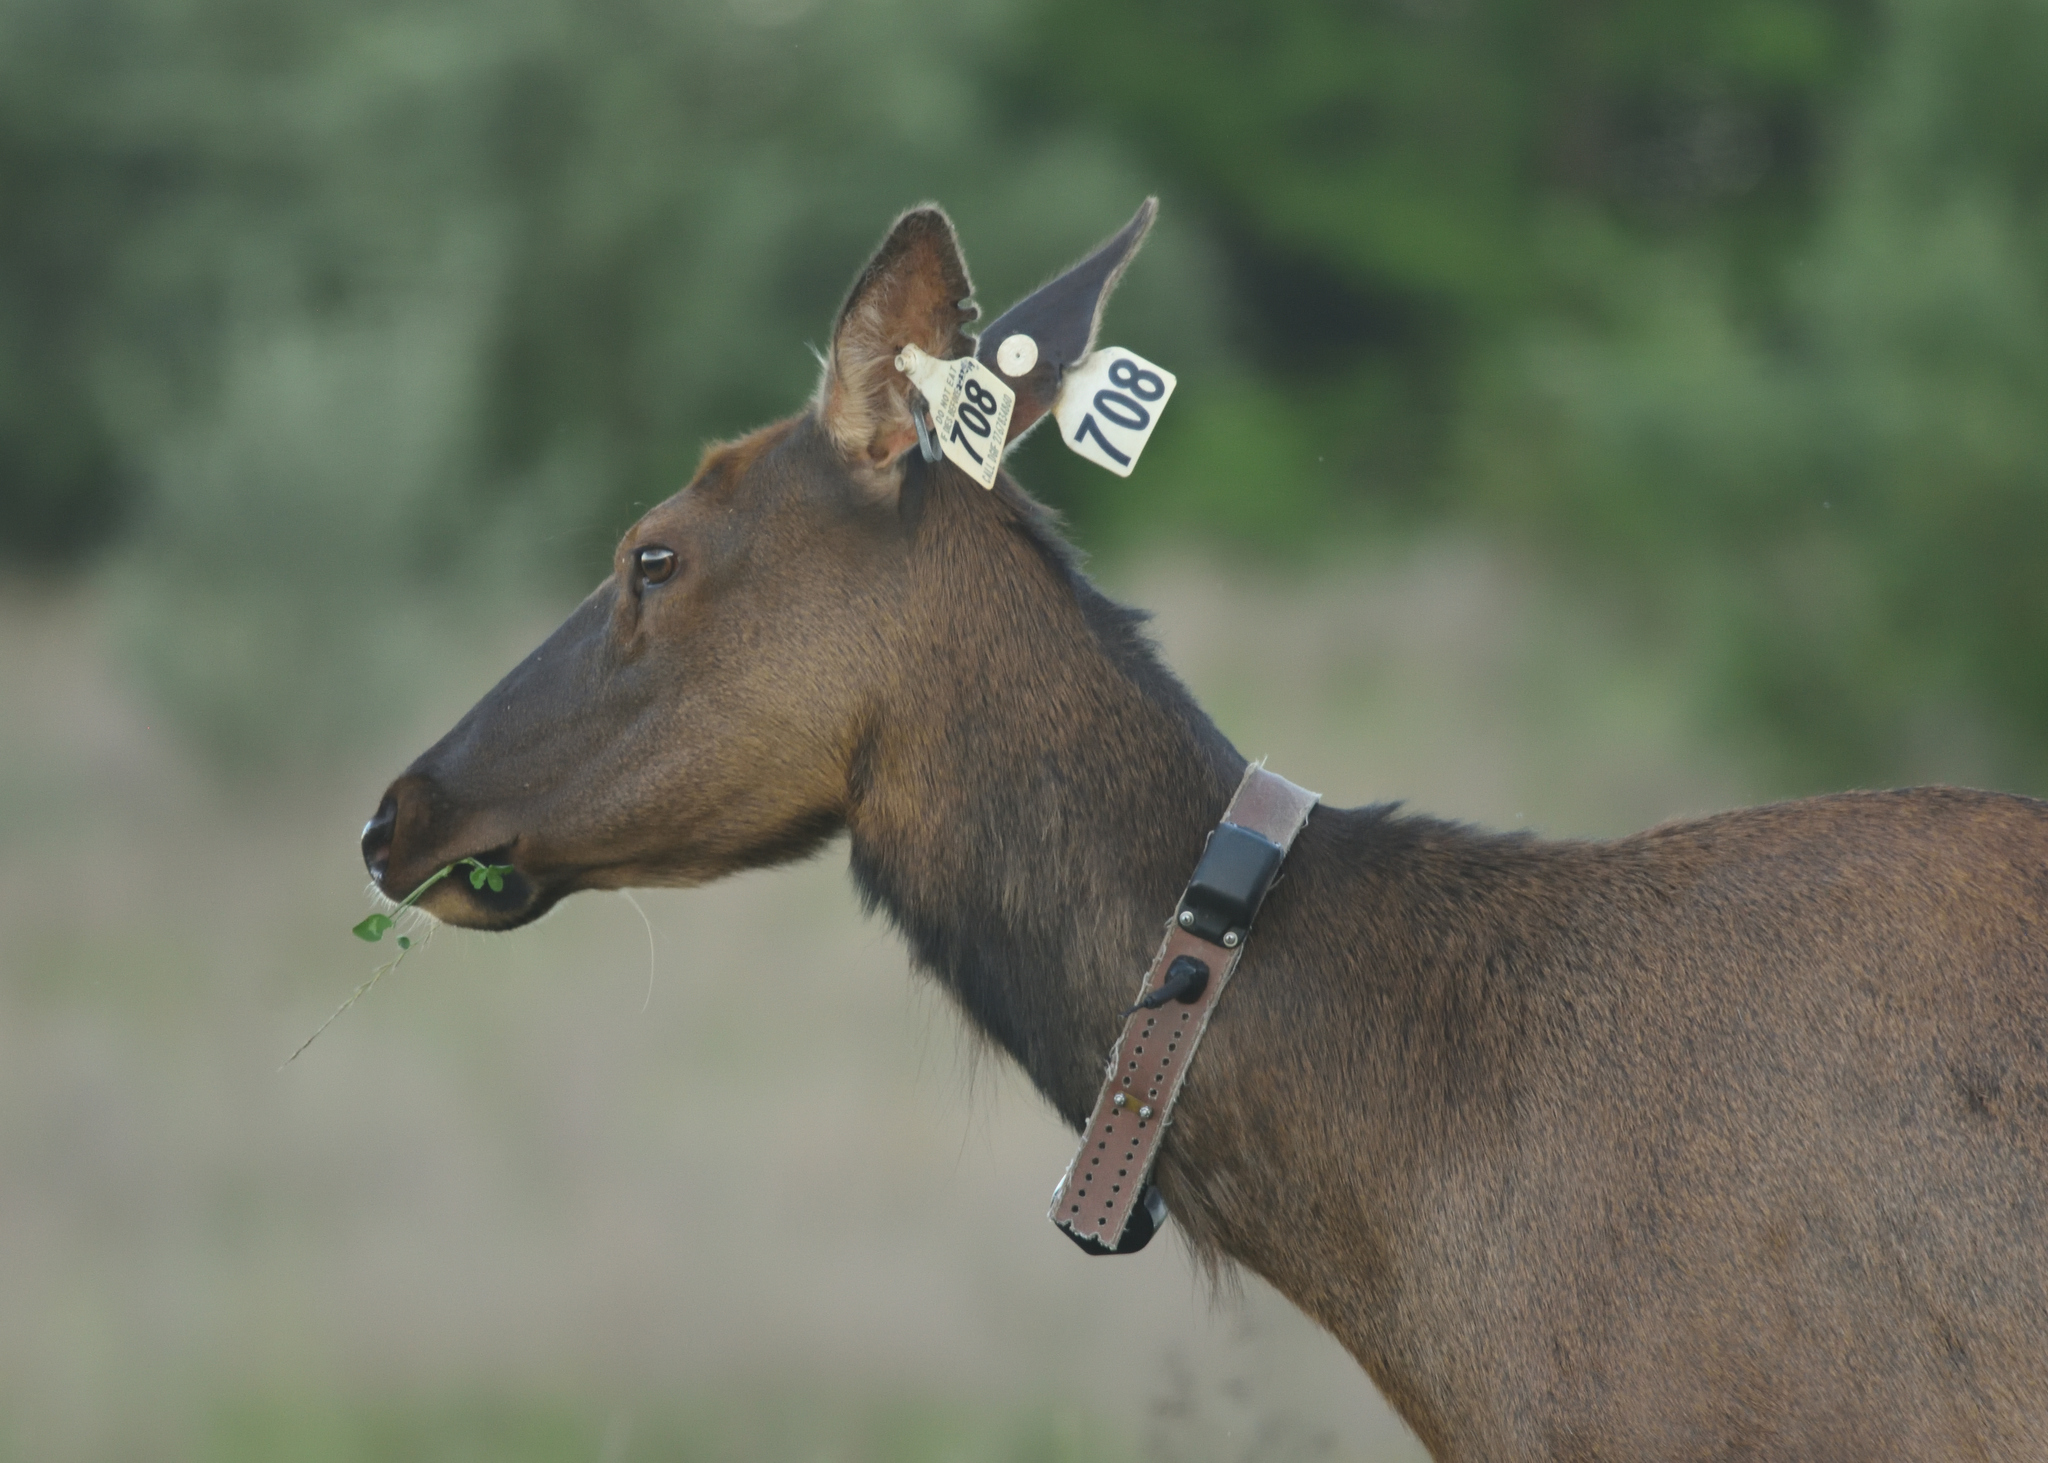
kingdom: Animalia
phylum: Chordata
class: Mammalia
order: Artiodactyla
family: Cervidae
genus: Cervus
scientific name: Cervus elaphus
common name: Red deer
